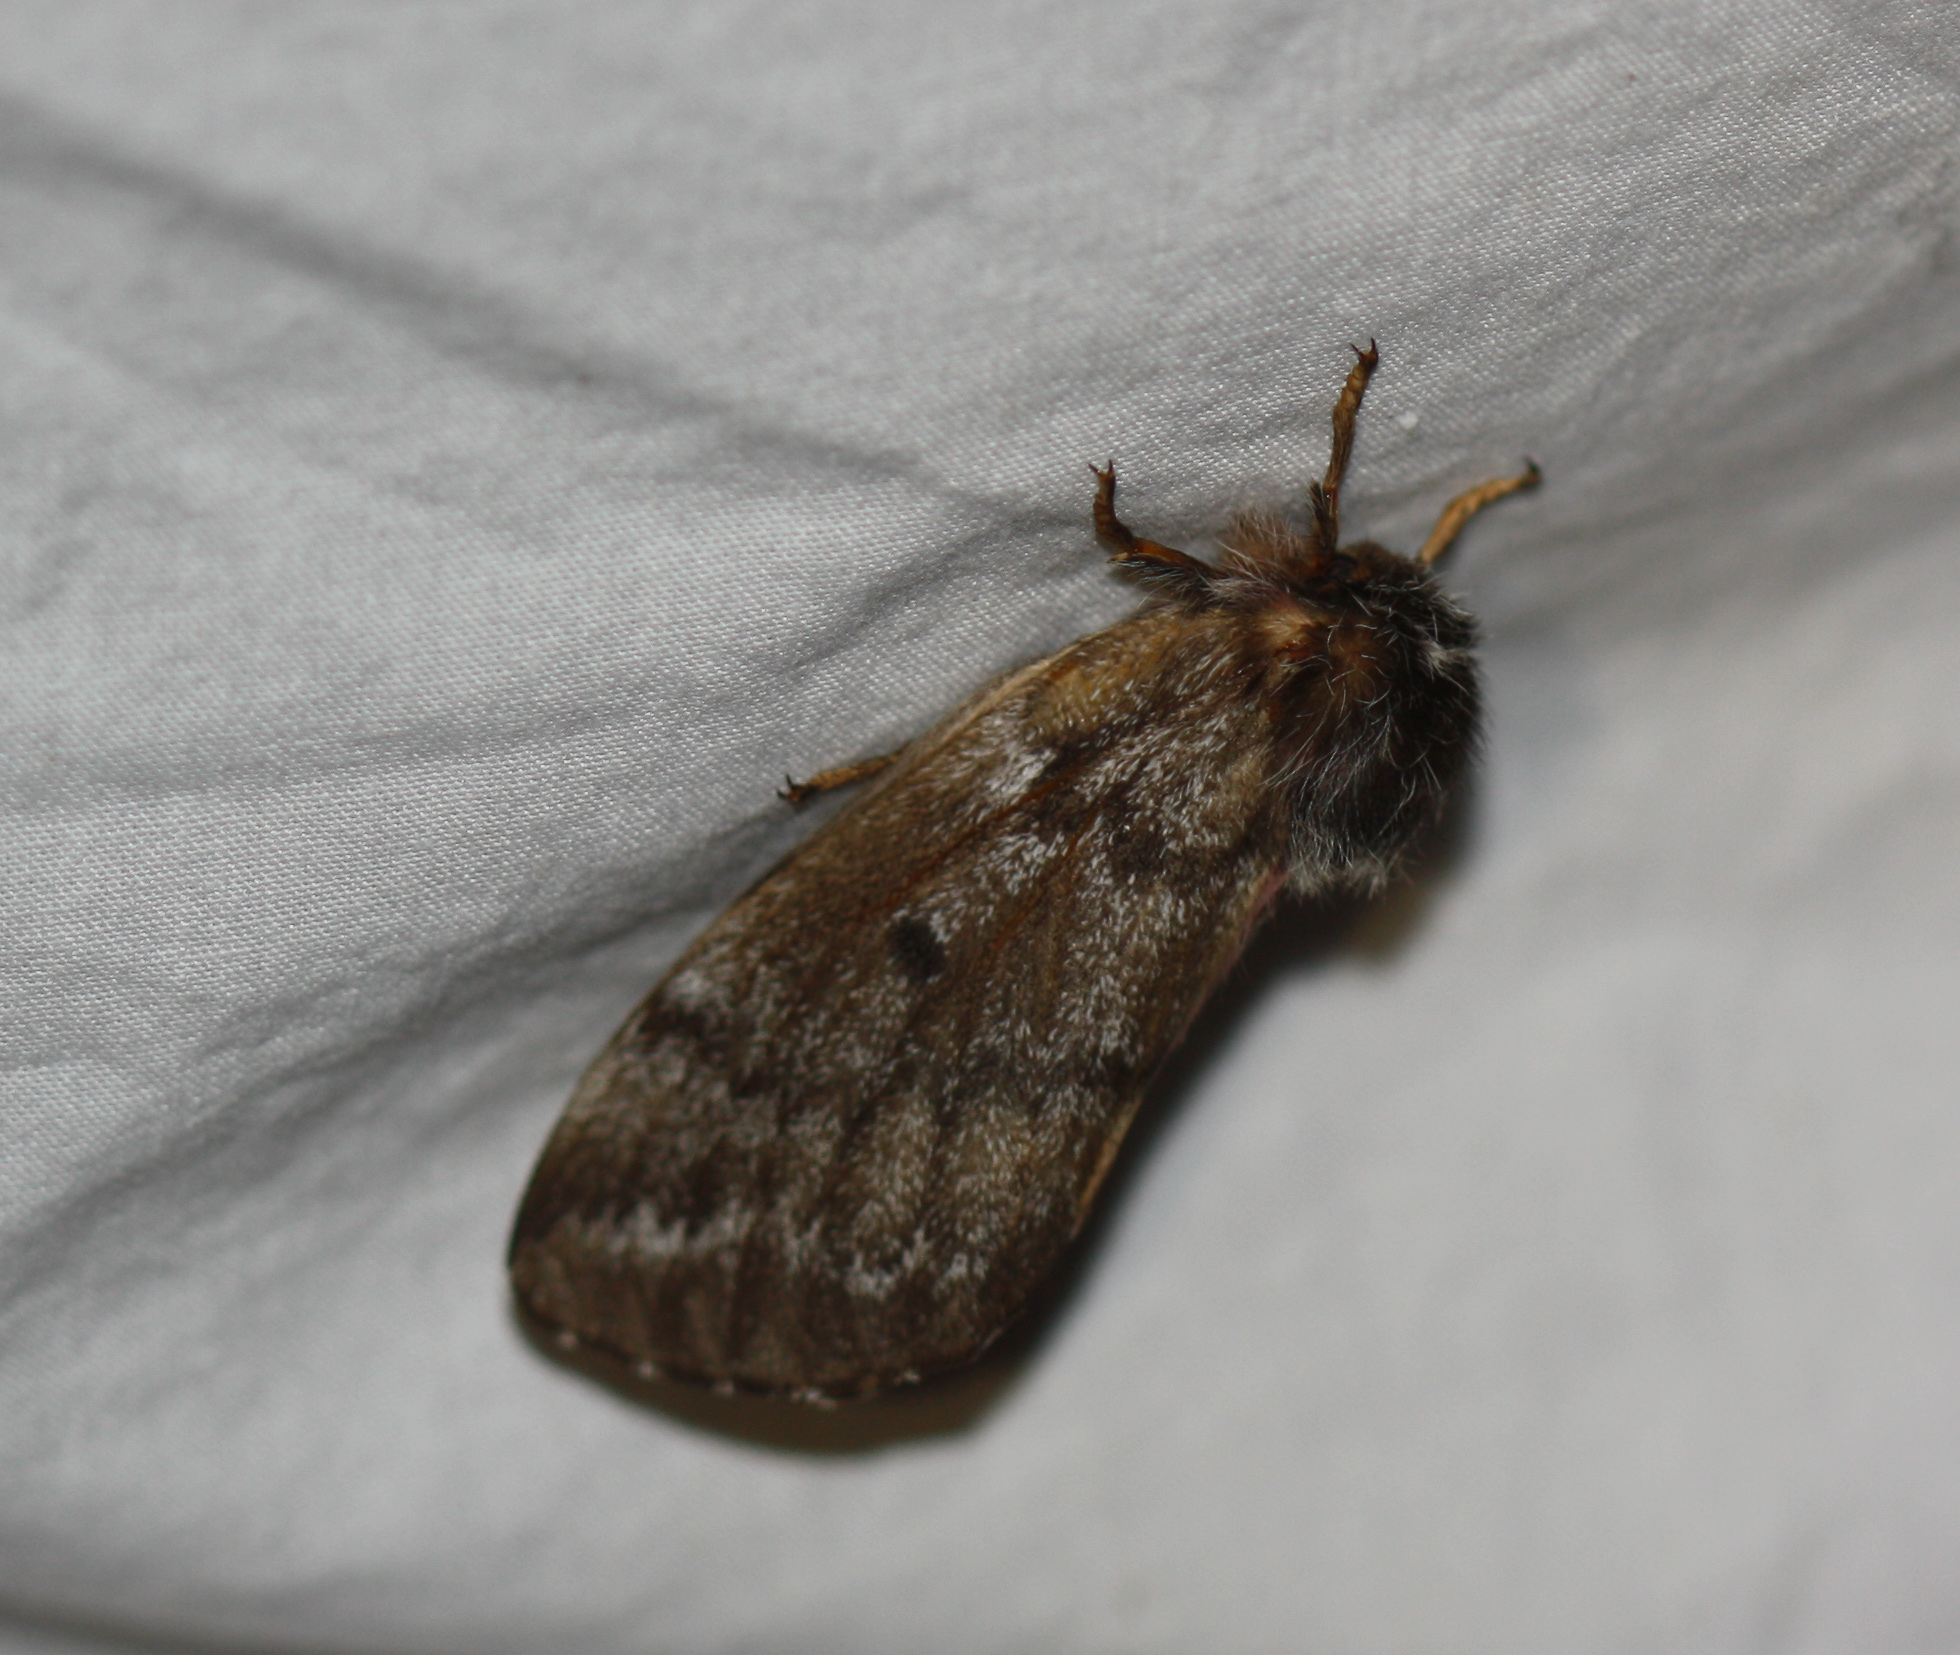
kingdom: Animalia
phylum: Arthropoda
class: Insecta
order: Lepidoptera
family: Saturniidae
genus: Coloradia
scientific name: Coloradia pandora
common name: Pandora pinemoth
